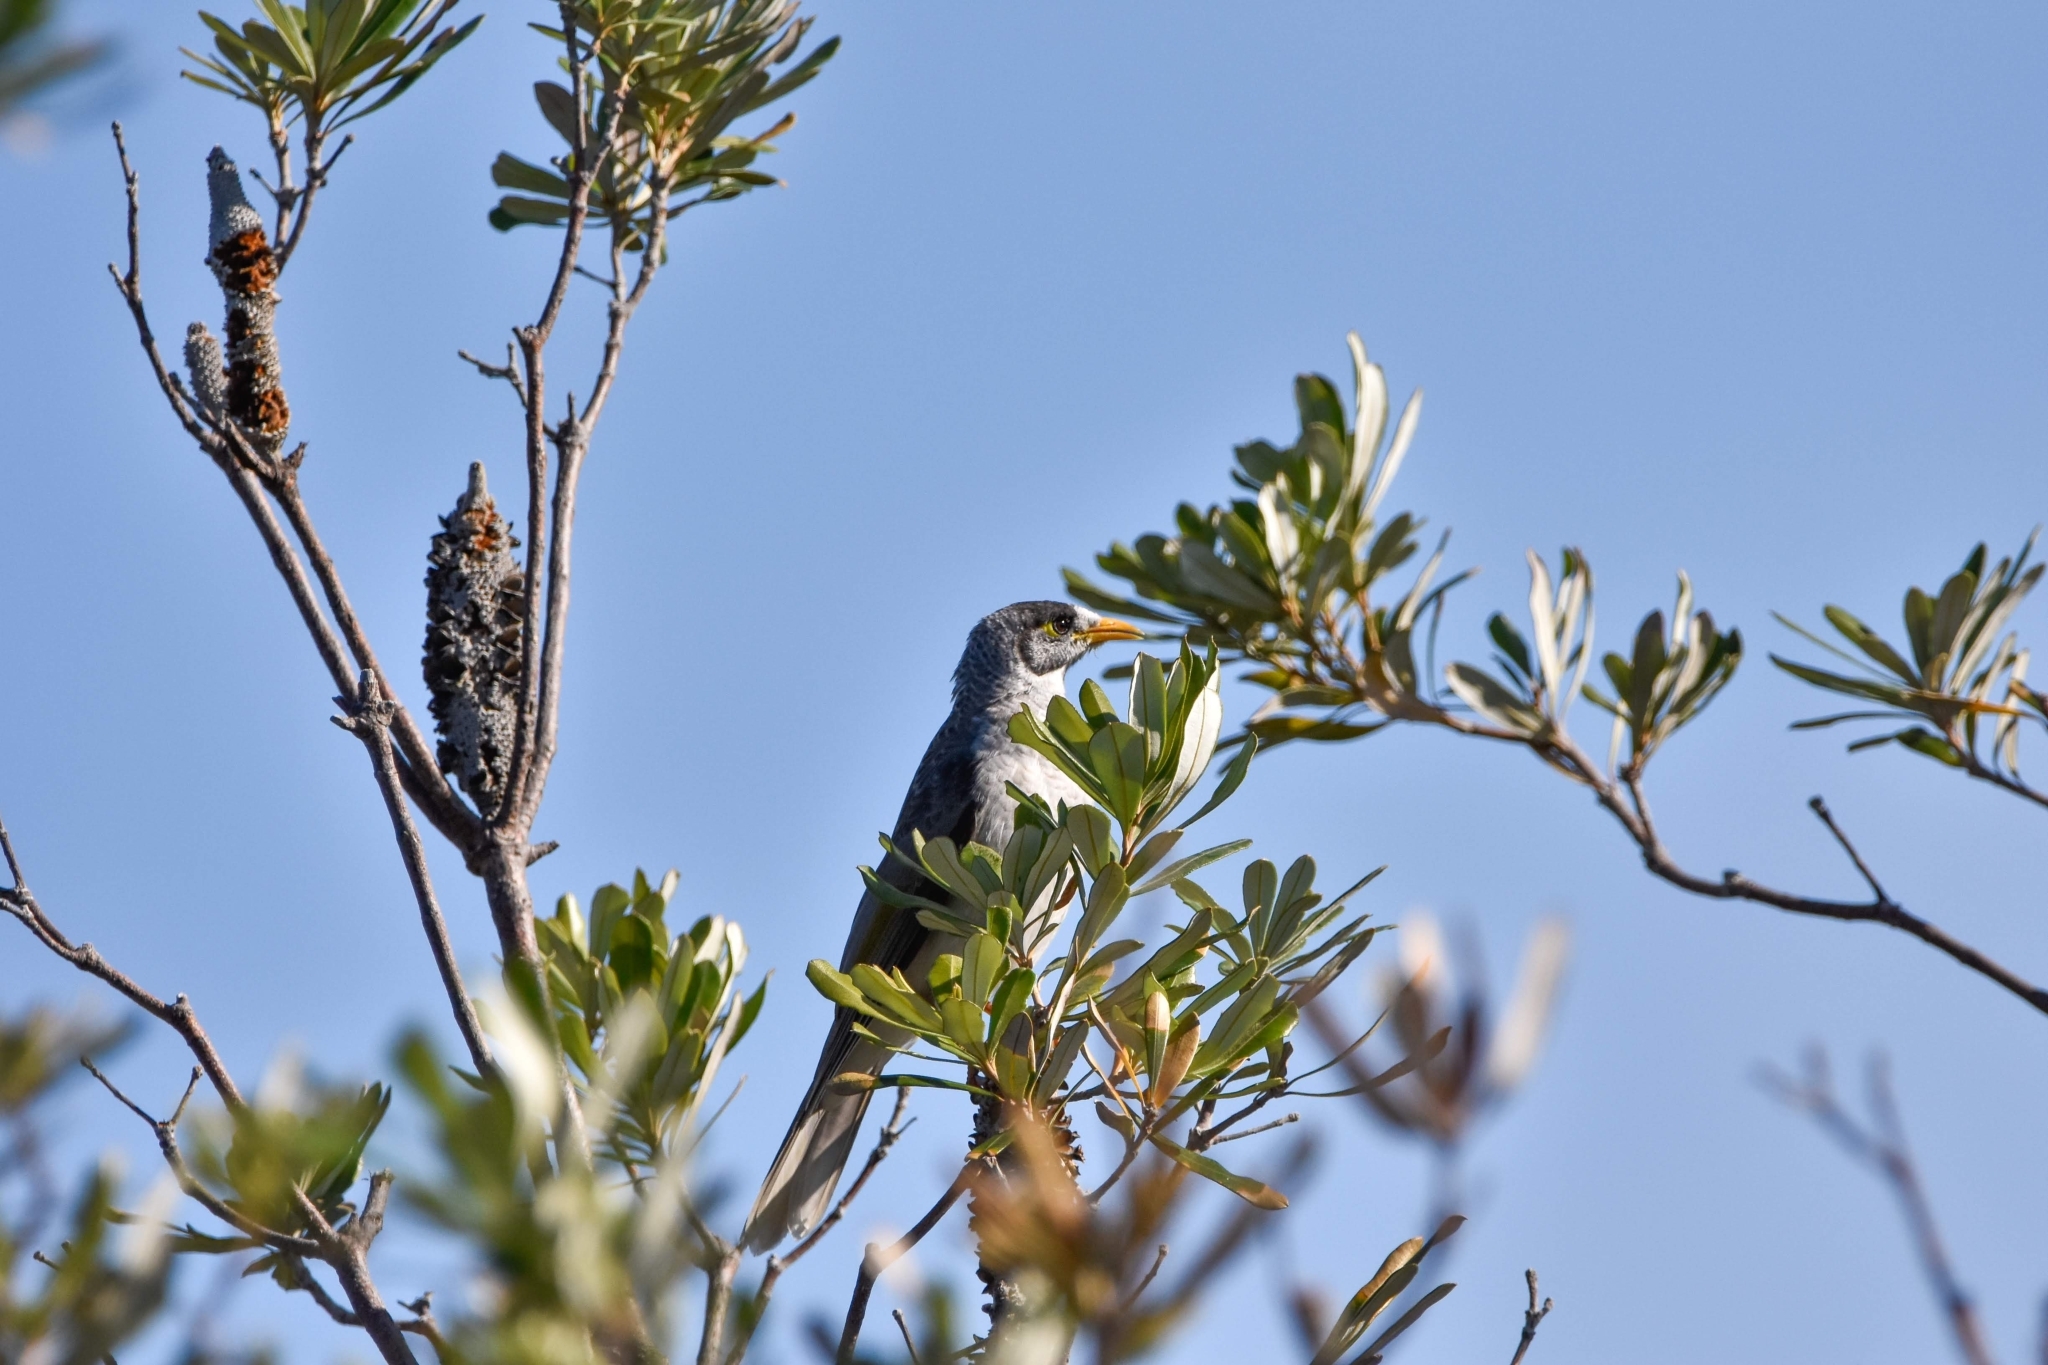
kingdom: Animalia
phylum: Chordata
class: Aves
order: Passeriformes
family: Meliphagidae
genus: Manorina
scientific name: Manorina melanocephala
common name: Noisy miner
